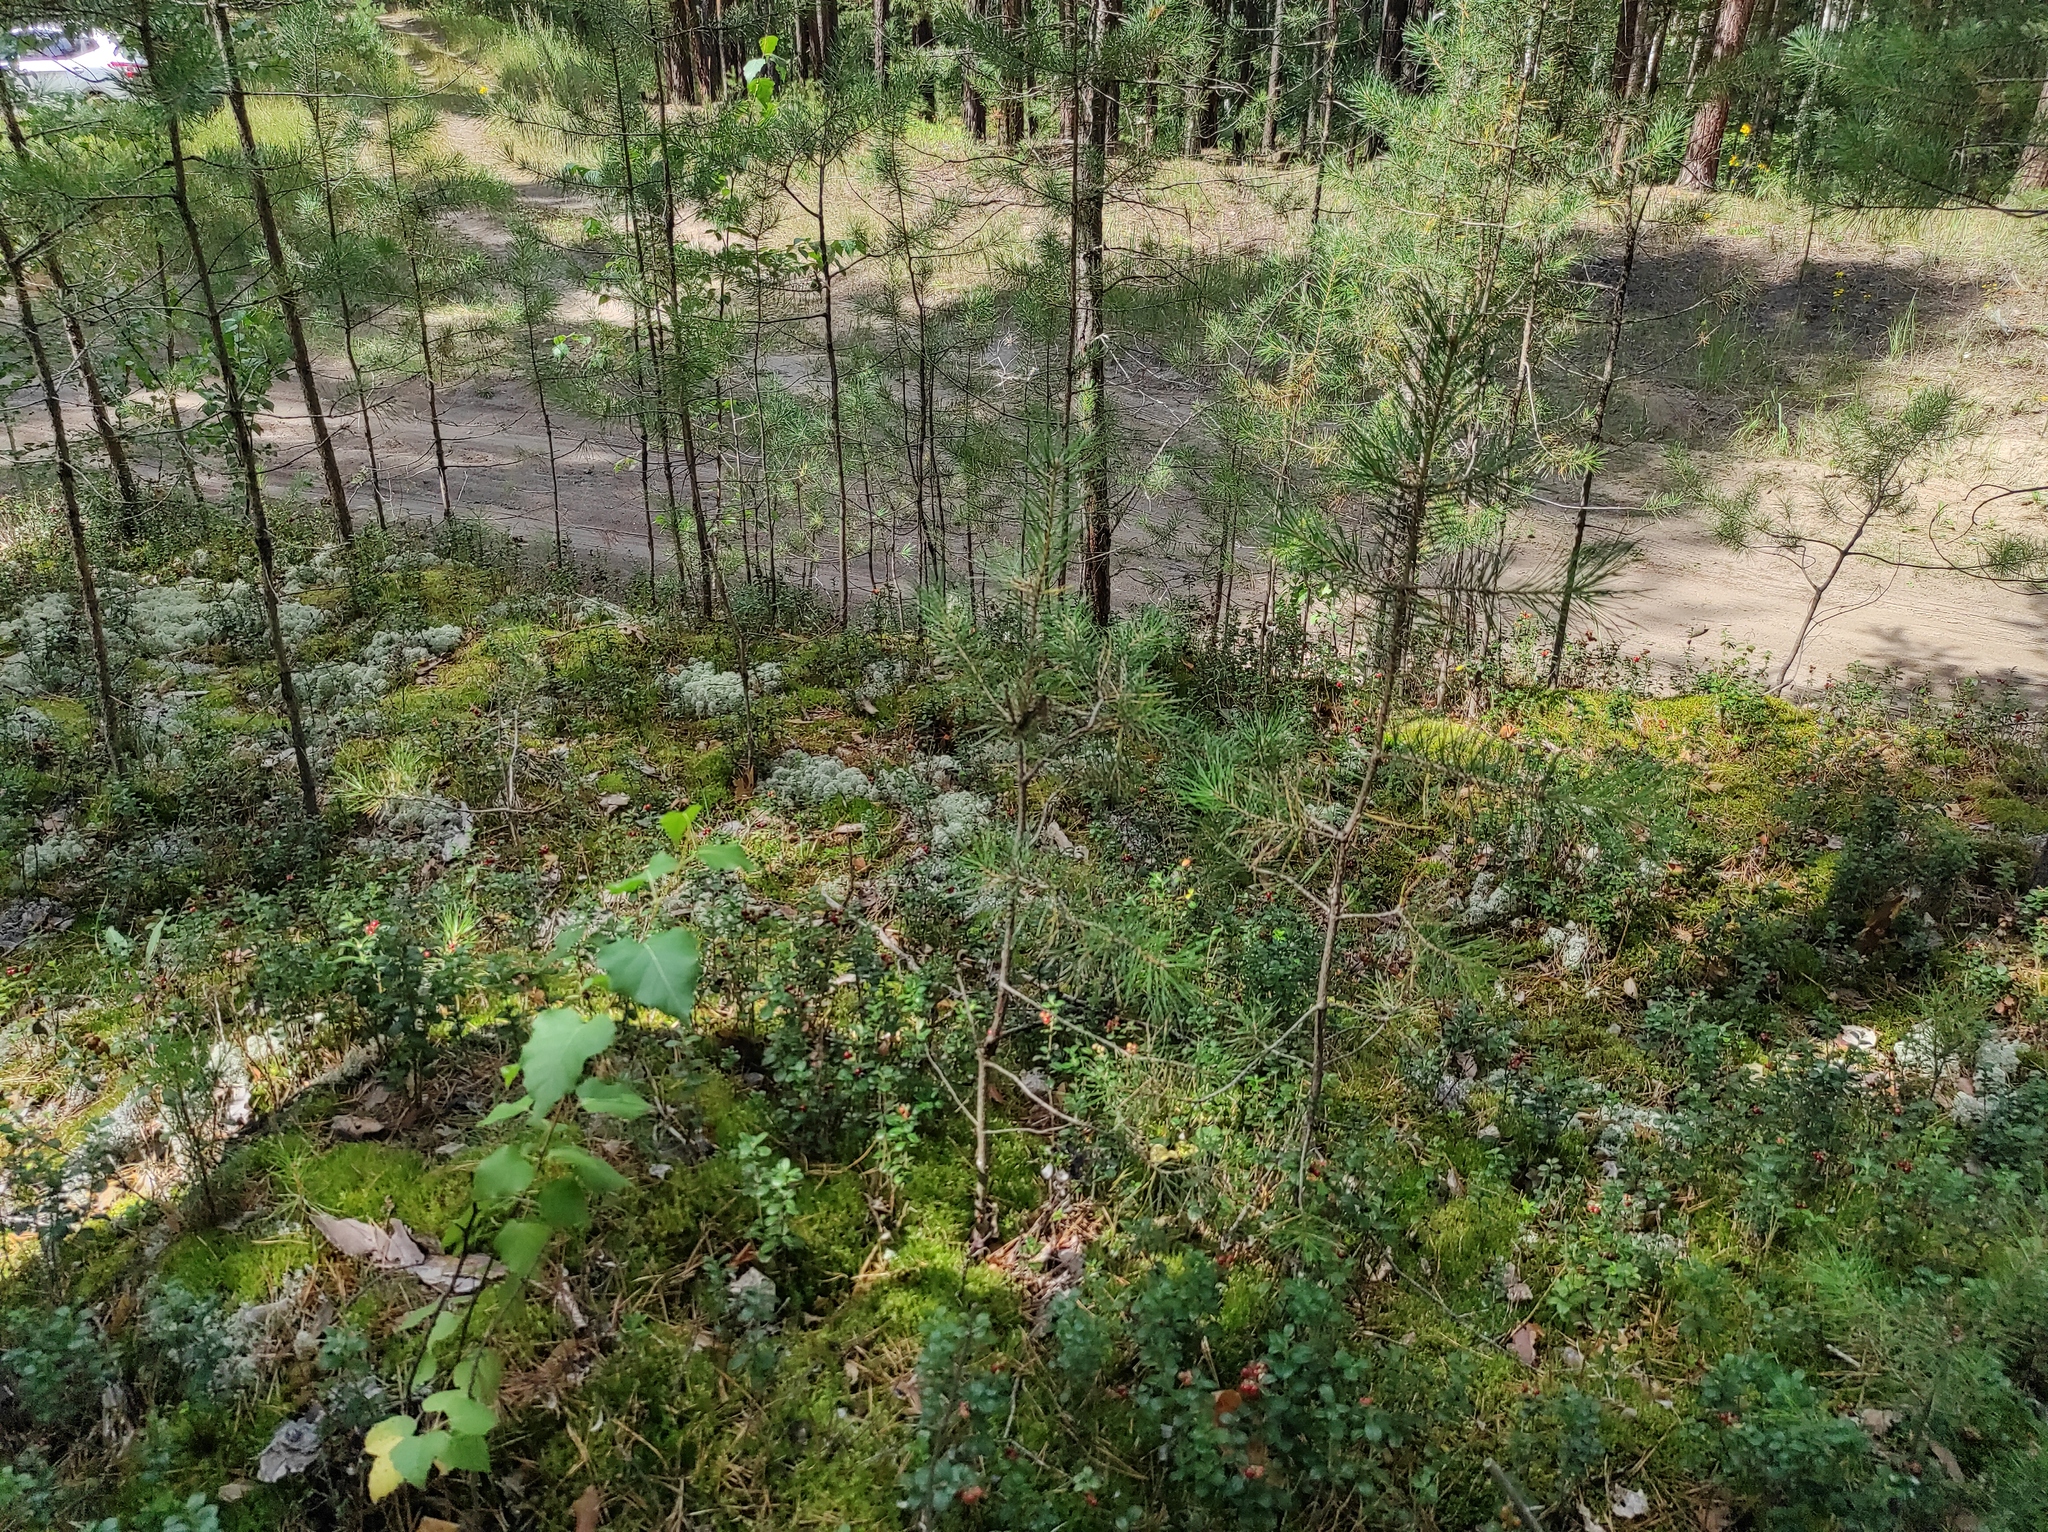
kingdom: Plantae
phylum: Tracheophyta
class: Pinopsida
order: Pinales
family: Pinaceae
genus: Pinus
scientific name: Pinus sylvestris
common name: Scots pine
